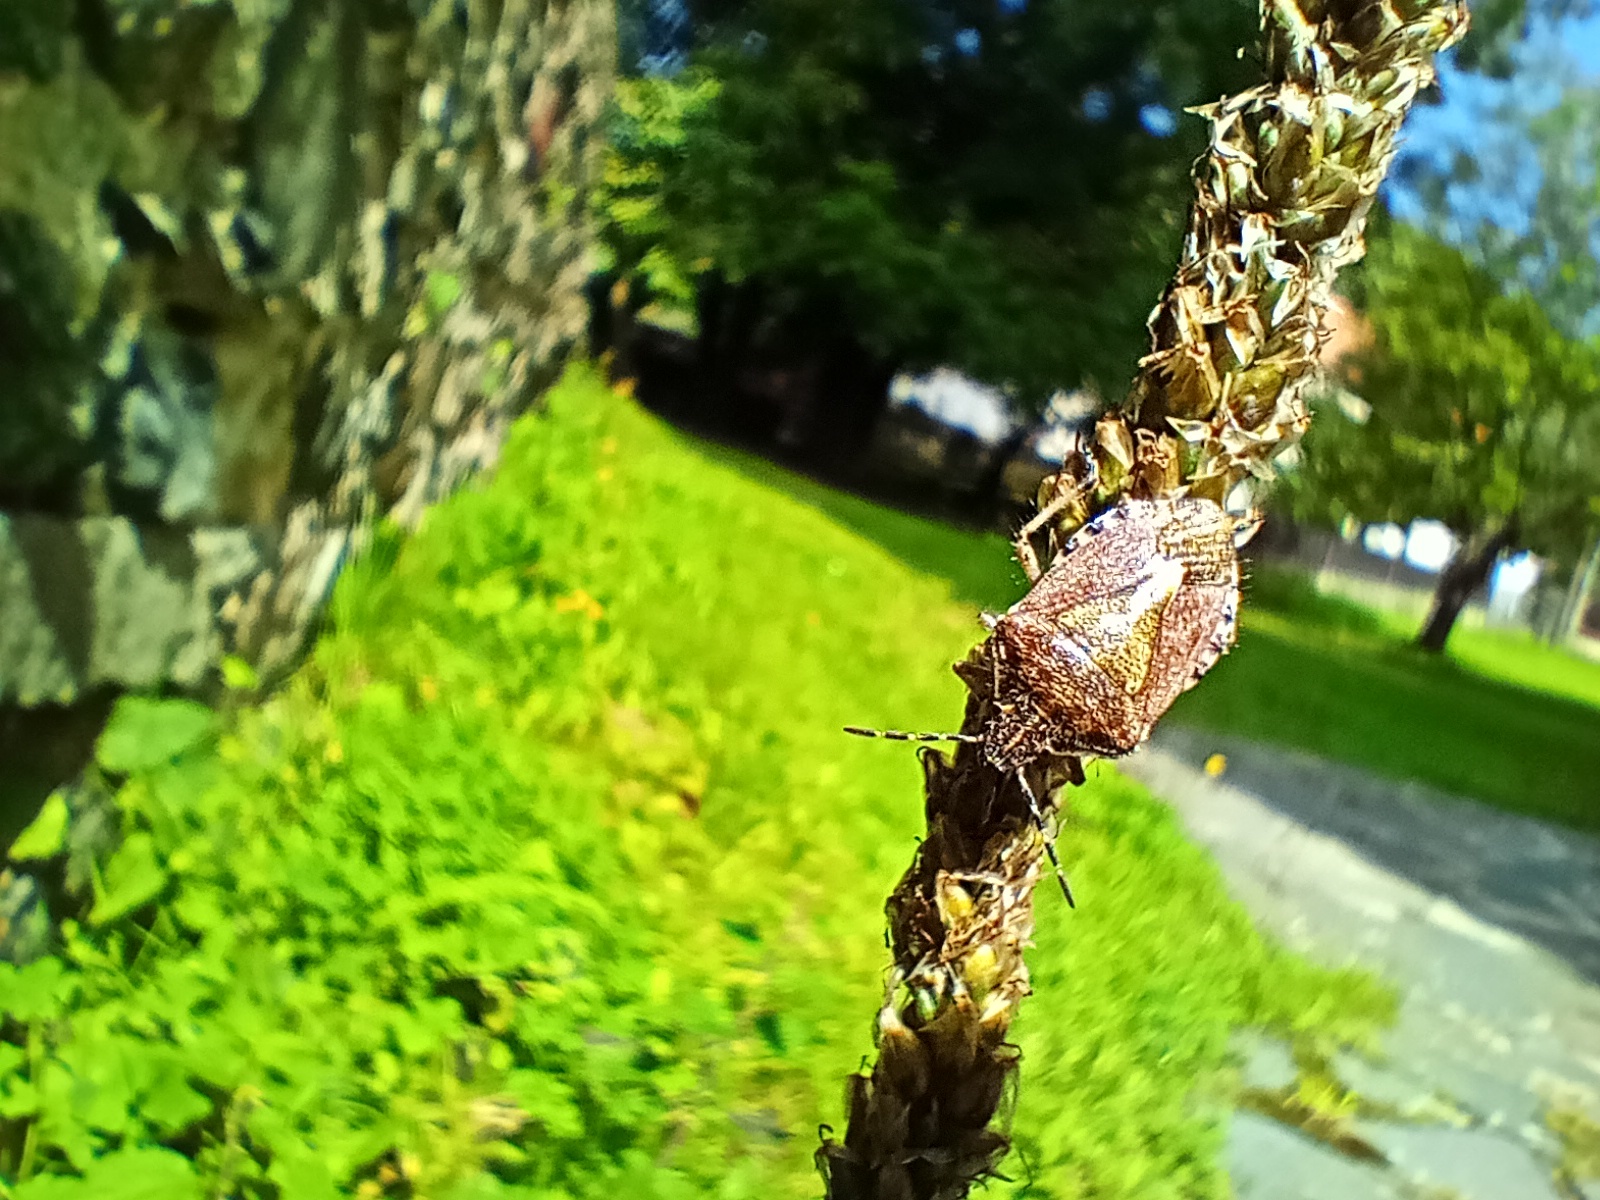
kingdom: Animalia
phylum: Arthropoda
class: Insecta
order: Hemiptera
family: Pentatomidae
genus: Dolycoris
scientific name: Dolycoris baccarum
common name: Sloe bug
